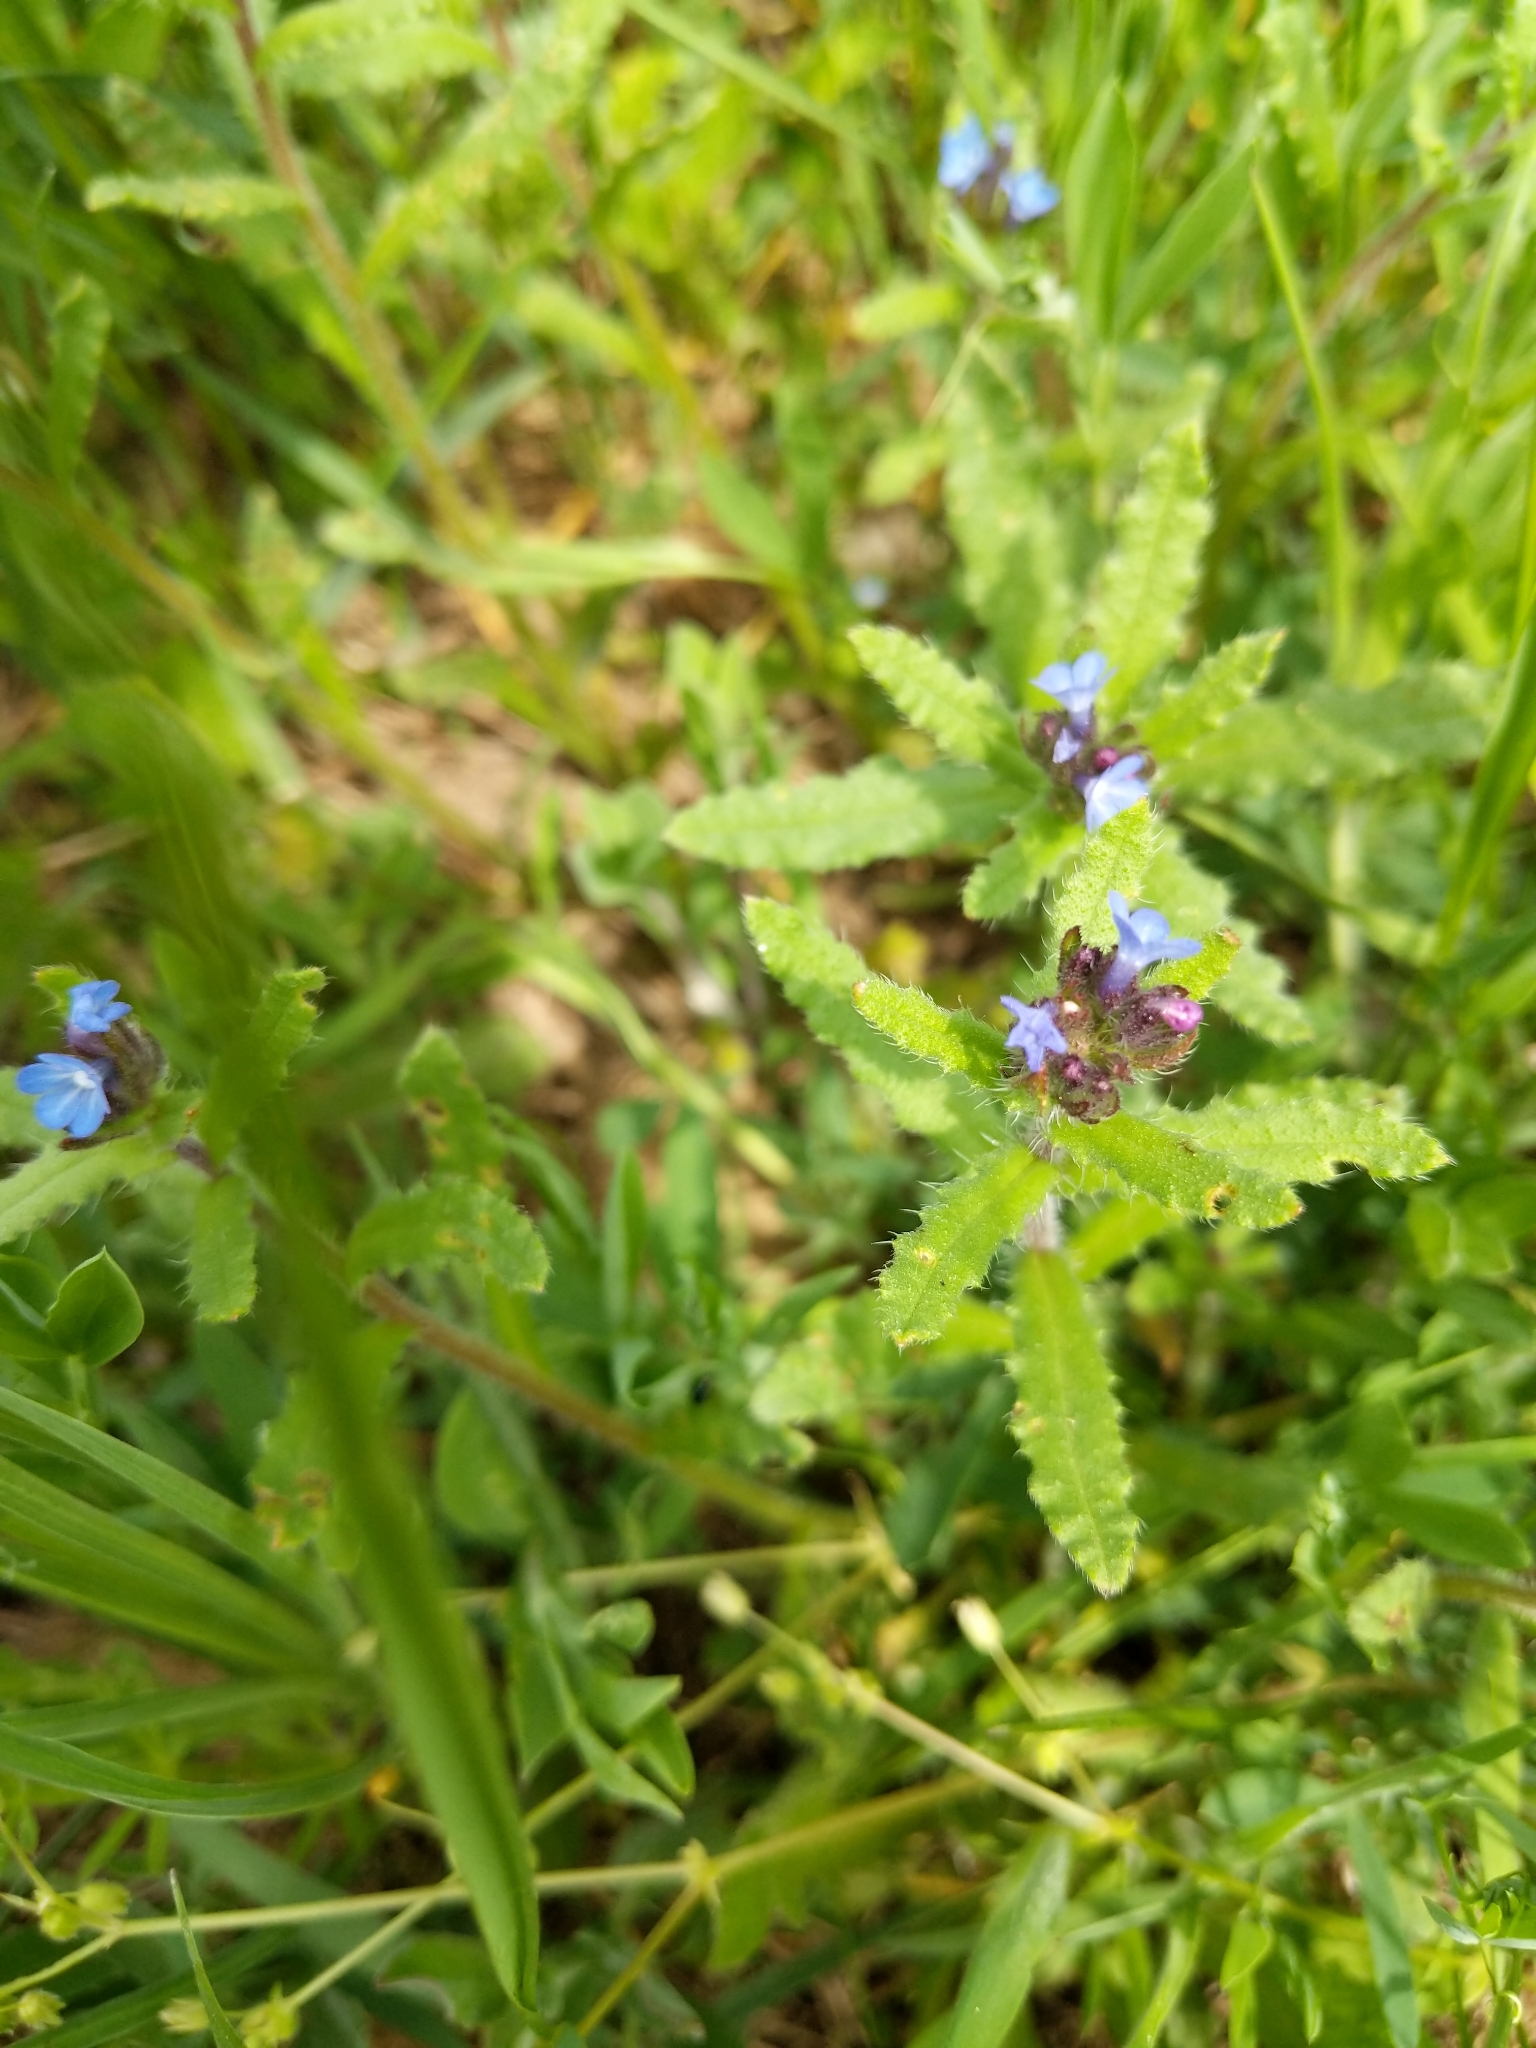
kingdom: Plantae
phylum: Tracheophyta
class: Magnoliopsida
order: Boraginales
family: Boraginaceae
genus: Lycopsis
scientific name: Lycopsis arvensis
